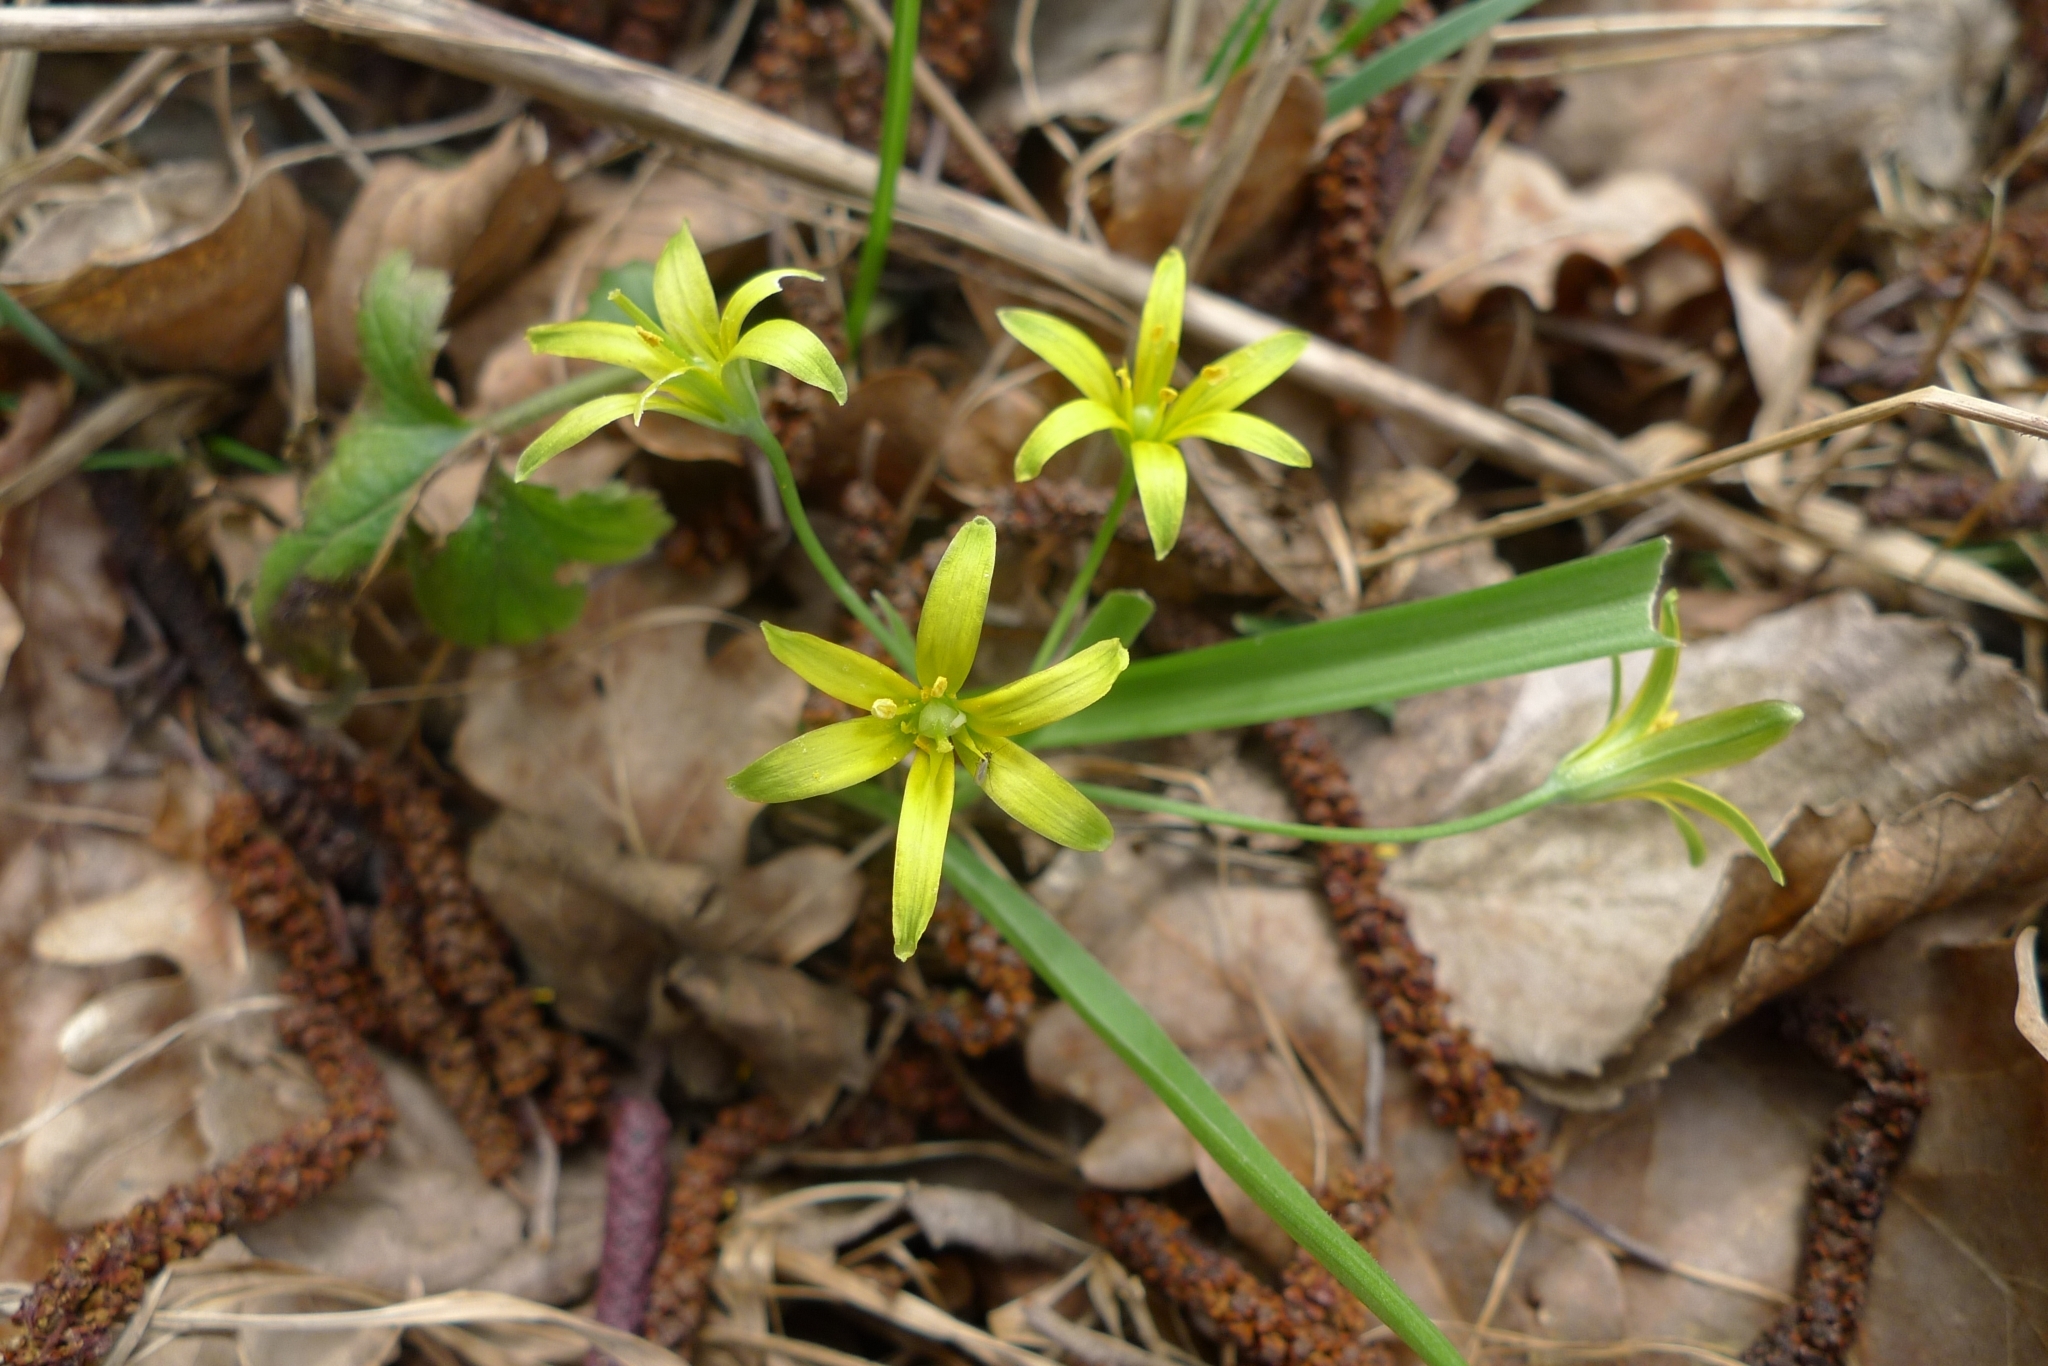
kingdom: Plantae
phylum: Tracheophyta
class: Liliopsida
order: Liliales
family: Liliaceae
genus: Gagea
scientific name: Gagea lutea
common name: Yellow star-of-bethlehem
